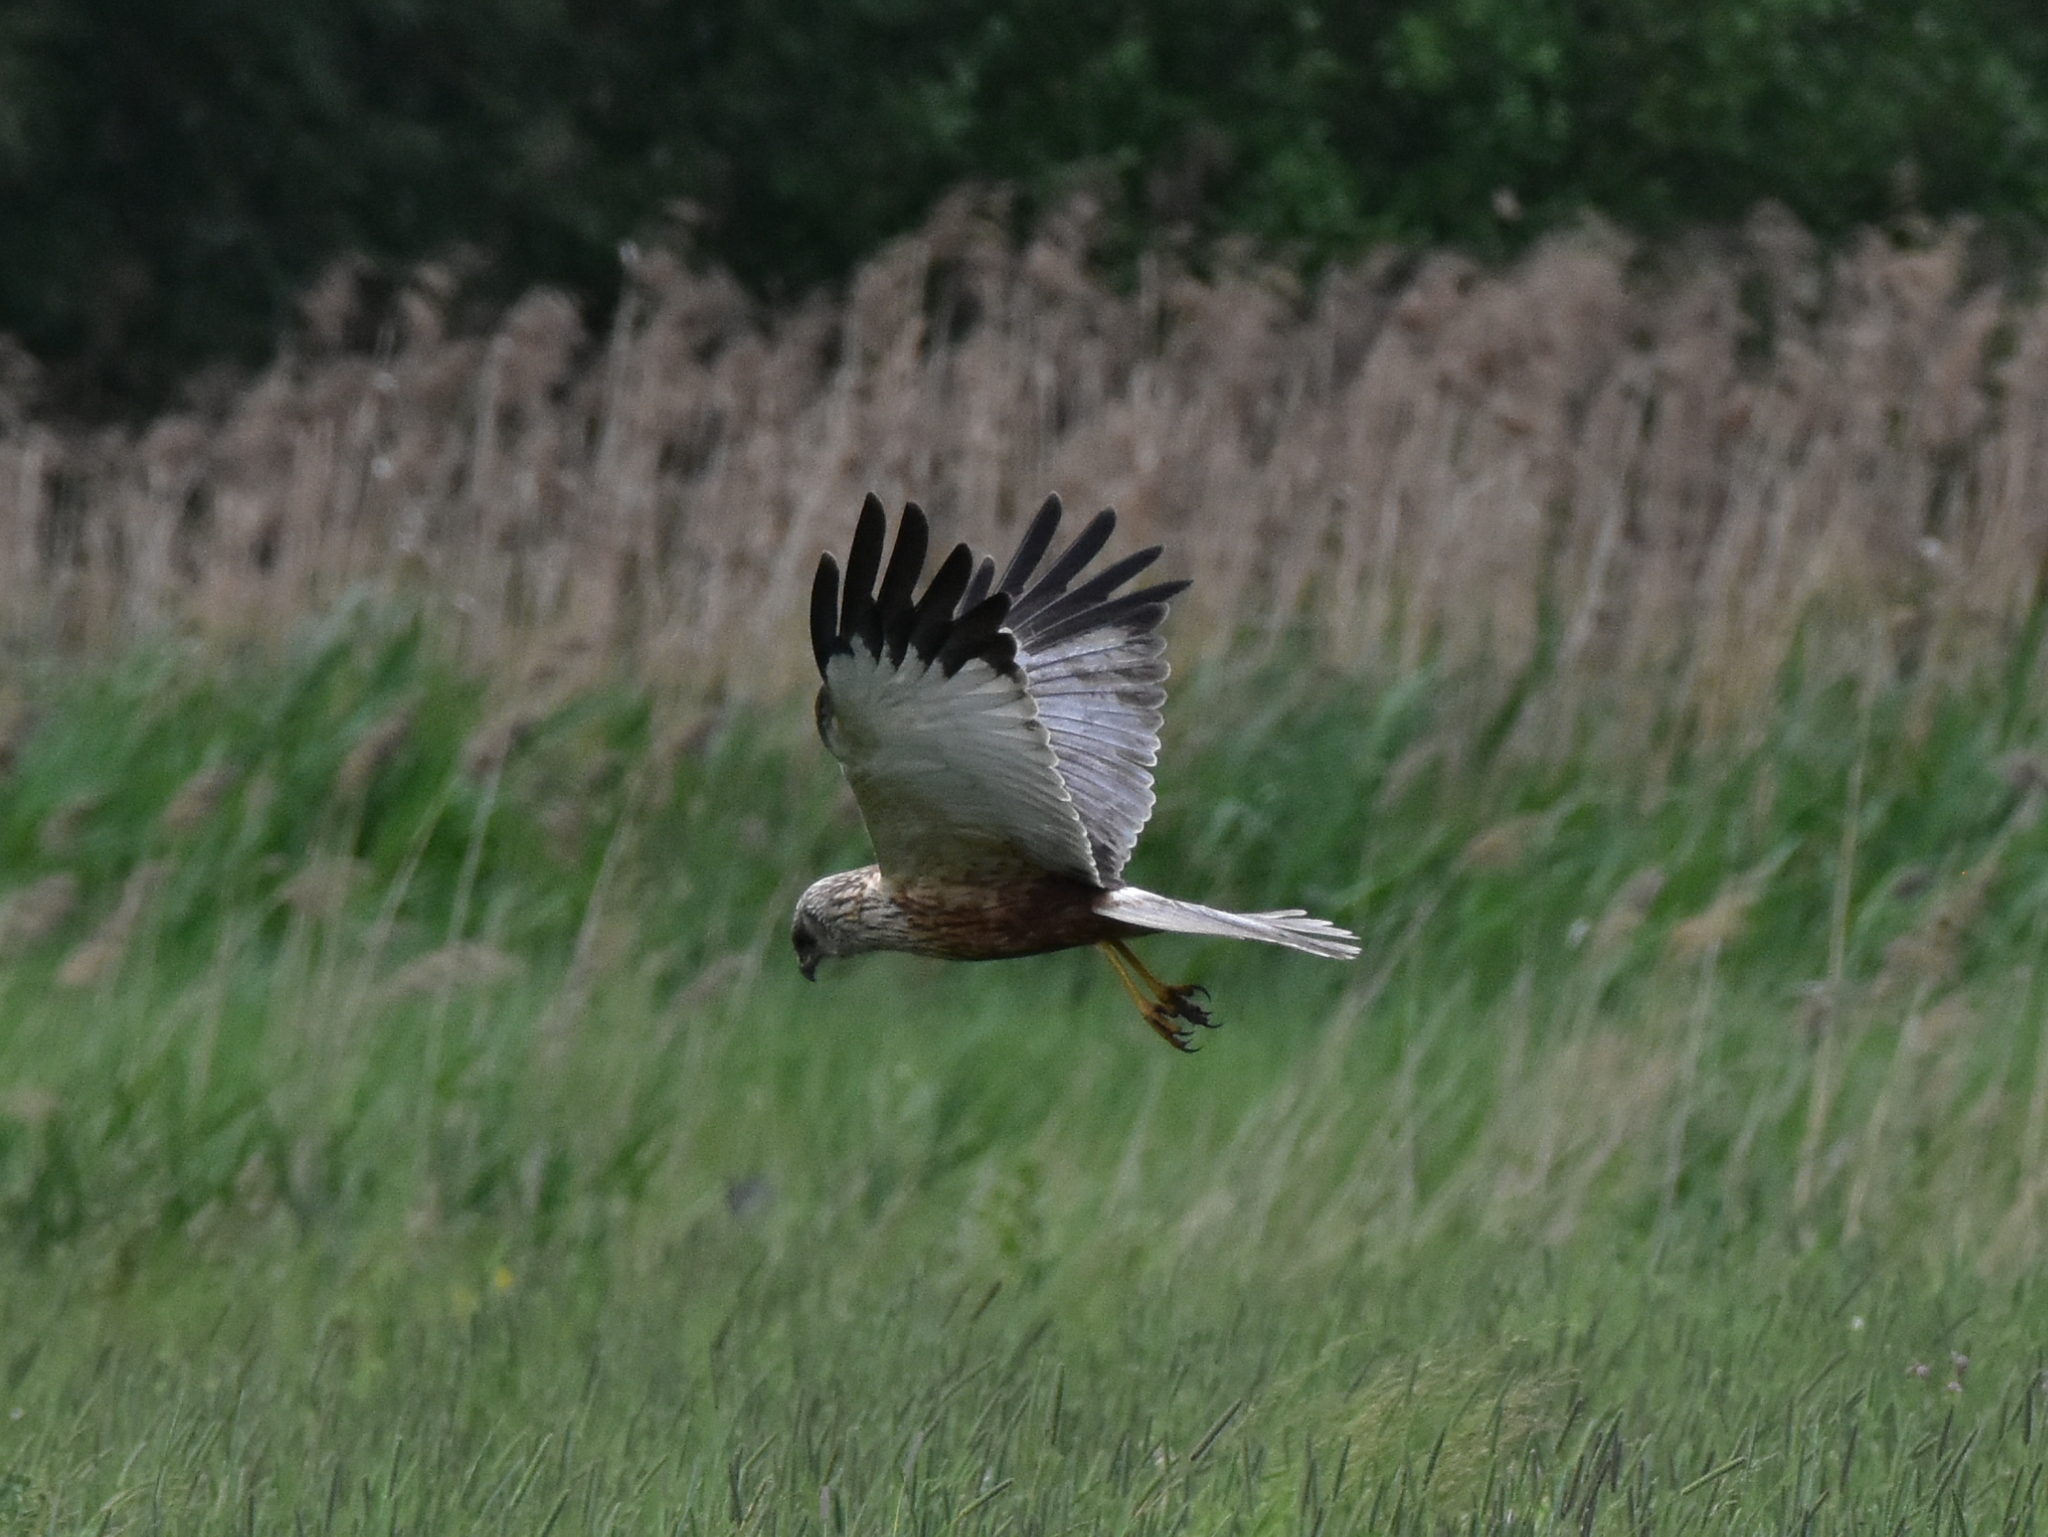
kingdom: Animalia
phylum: Chordata
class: Aves
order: Accipitriformes
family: Accipitridae
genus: Circus
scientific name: Circus aeruginosus
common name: Western marsh harrier
